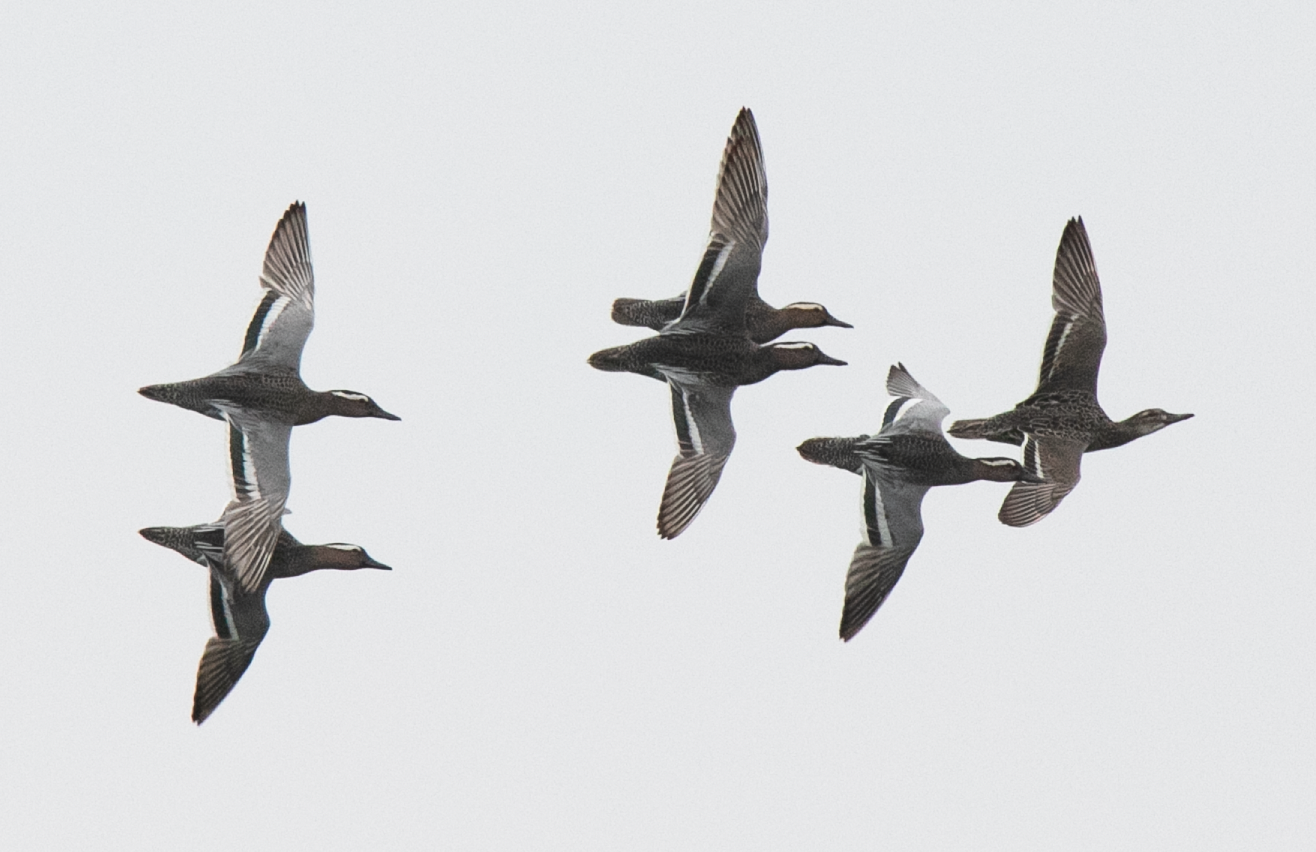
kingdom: Animalia
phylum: Chordata
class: Aves
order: Anseriformes
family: Anatidae
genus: Spatula
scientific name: Spatula querquedula
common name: Garganey
